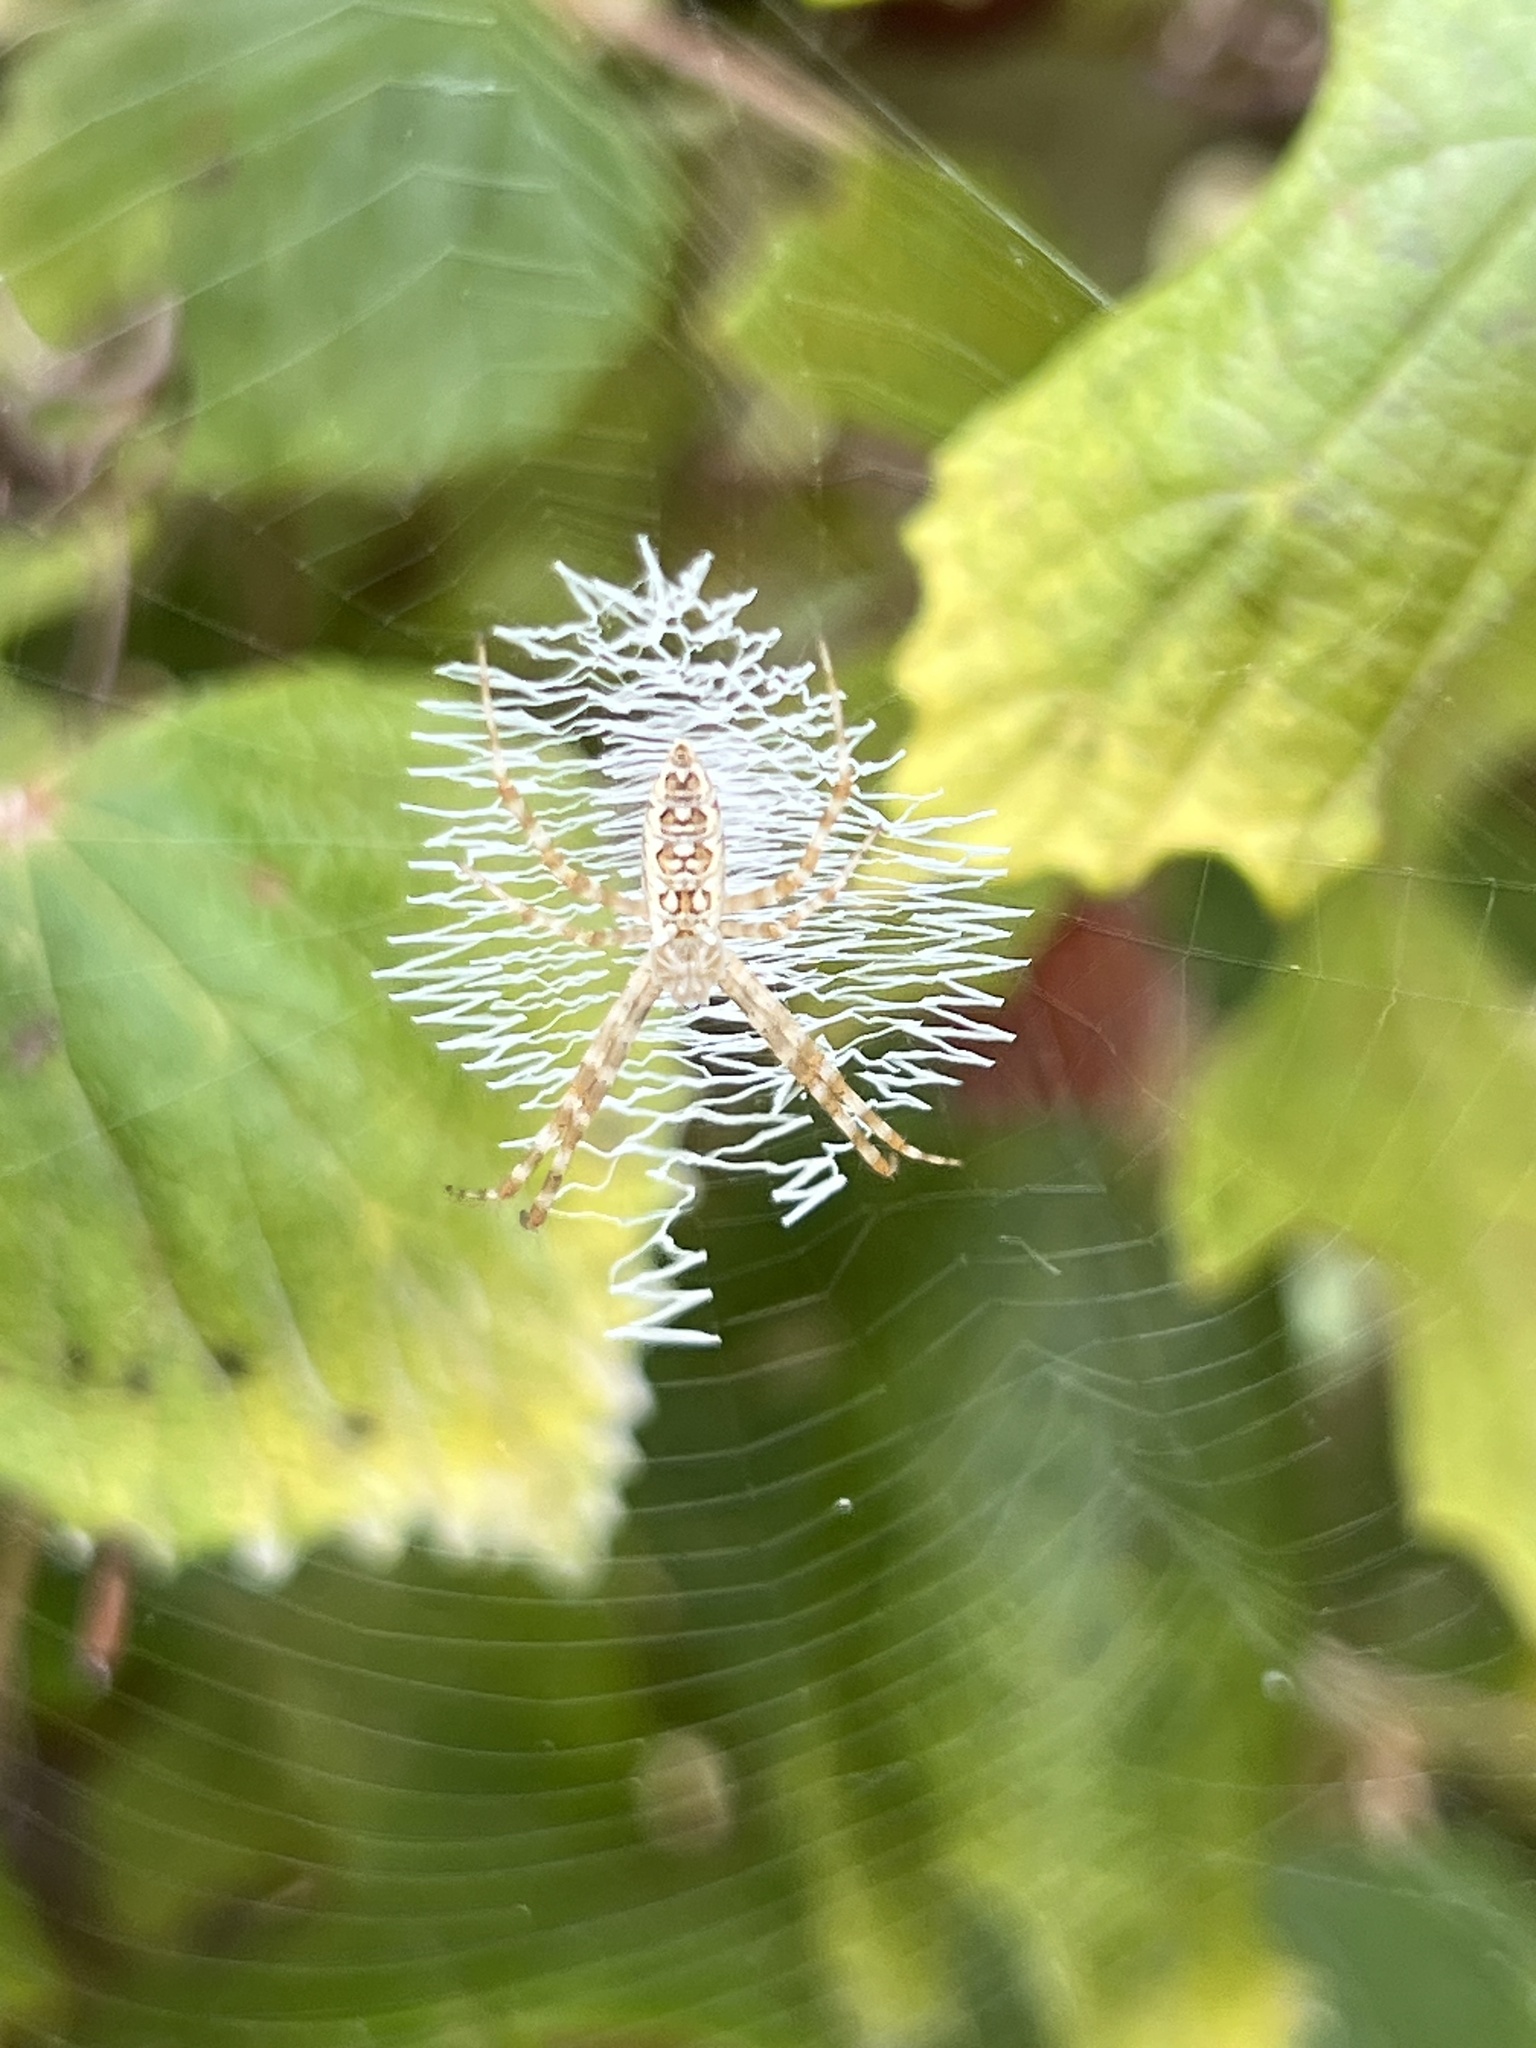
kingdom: Animalia
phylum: Arthropoda
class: Arachnida
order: Araneae
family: Araneidae
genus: Argiope
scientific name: Argiope aurantia
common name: Orb weavers
